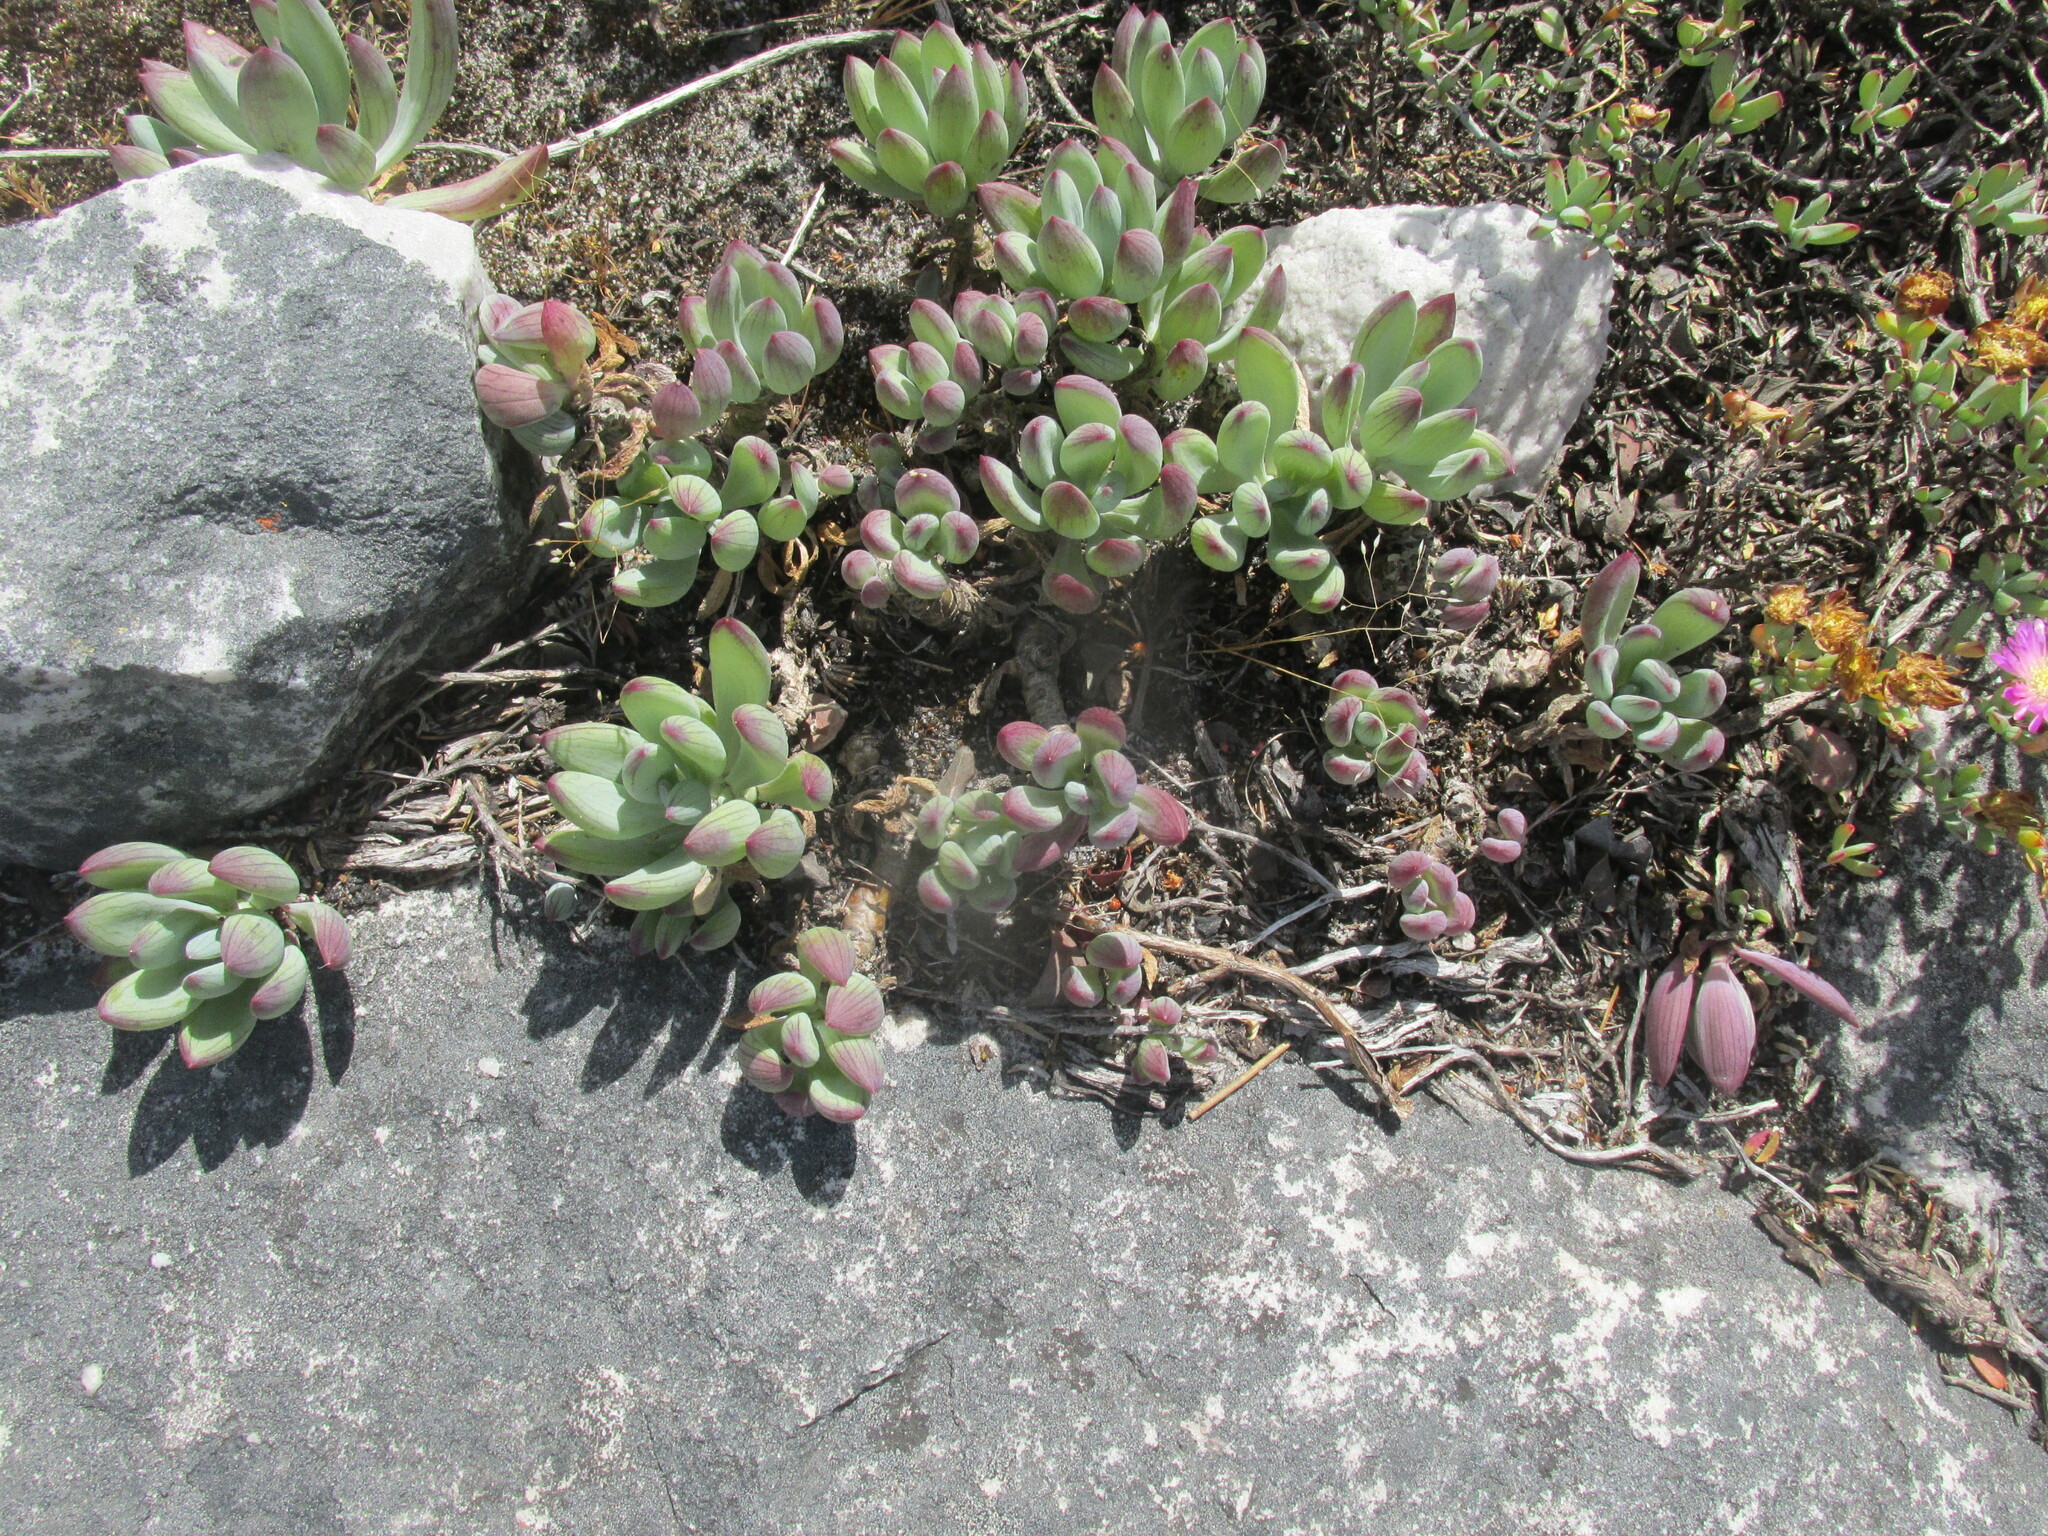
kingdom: Plantae
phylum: Tracheophyta
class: Magnoliopsida
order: Asterales
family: Asteraceae
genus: Curio
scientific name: Curio crassulifolius
